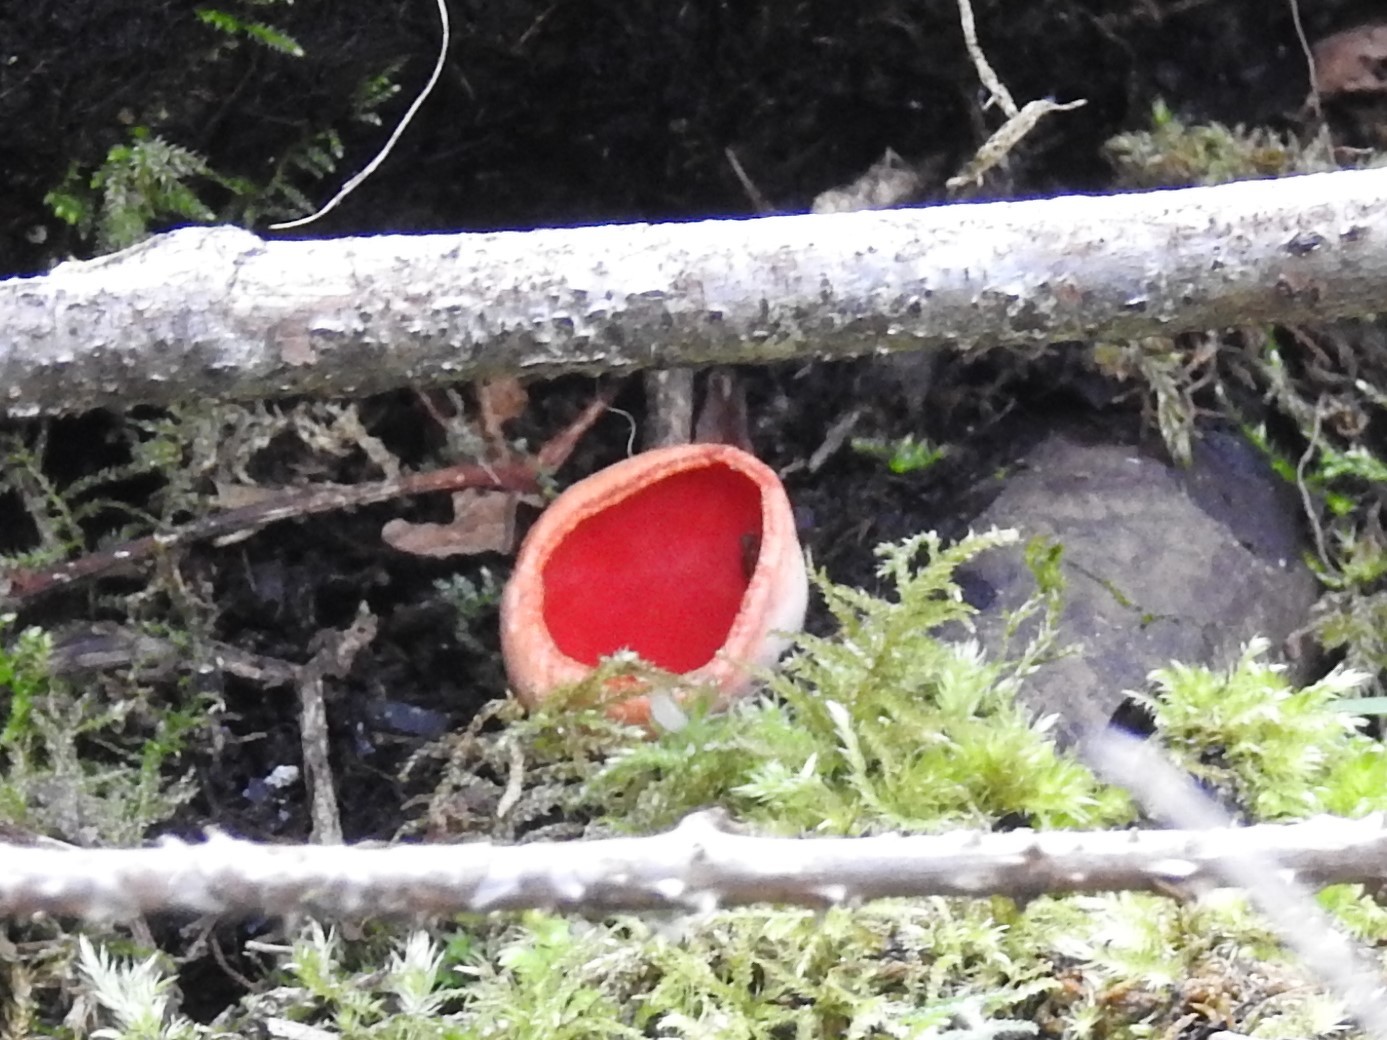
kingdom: Fungi
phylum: Ascomycota
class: Pezizomycetes
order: Pezizales
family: Sarcoscyphaceae
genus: Sarcoscypha
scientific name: Sarcoscypha coccinea
